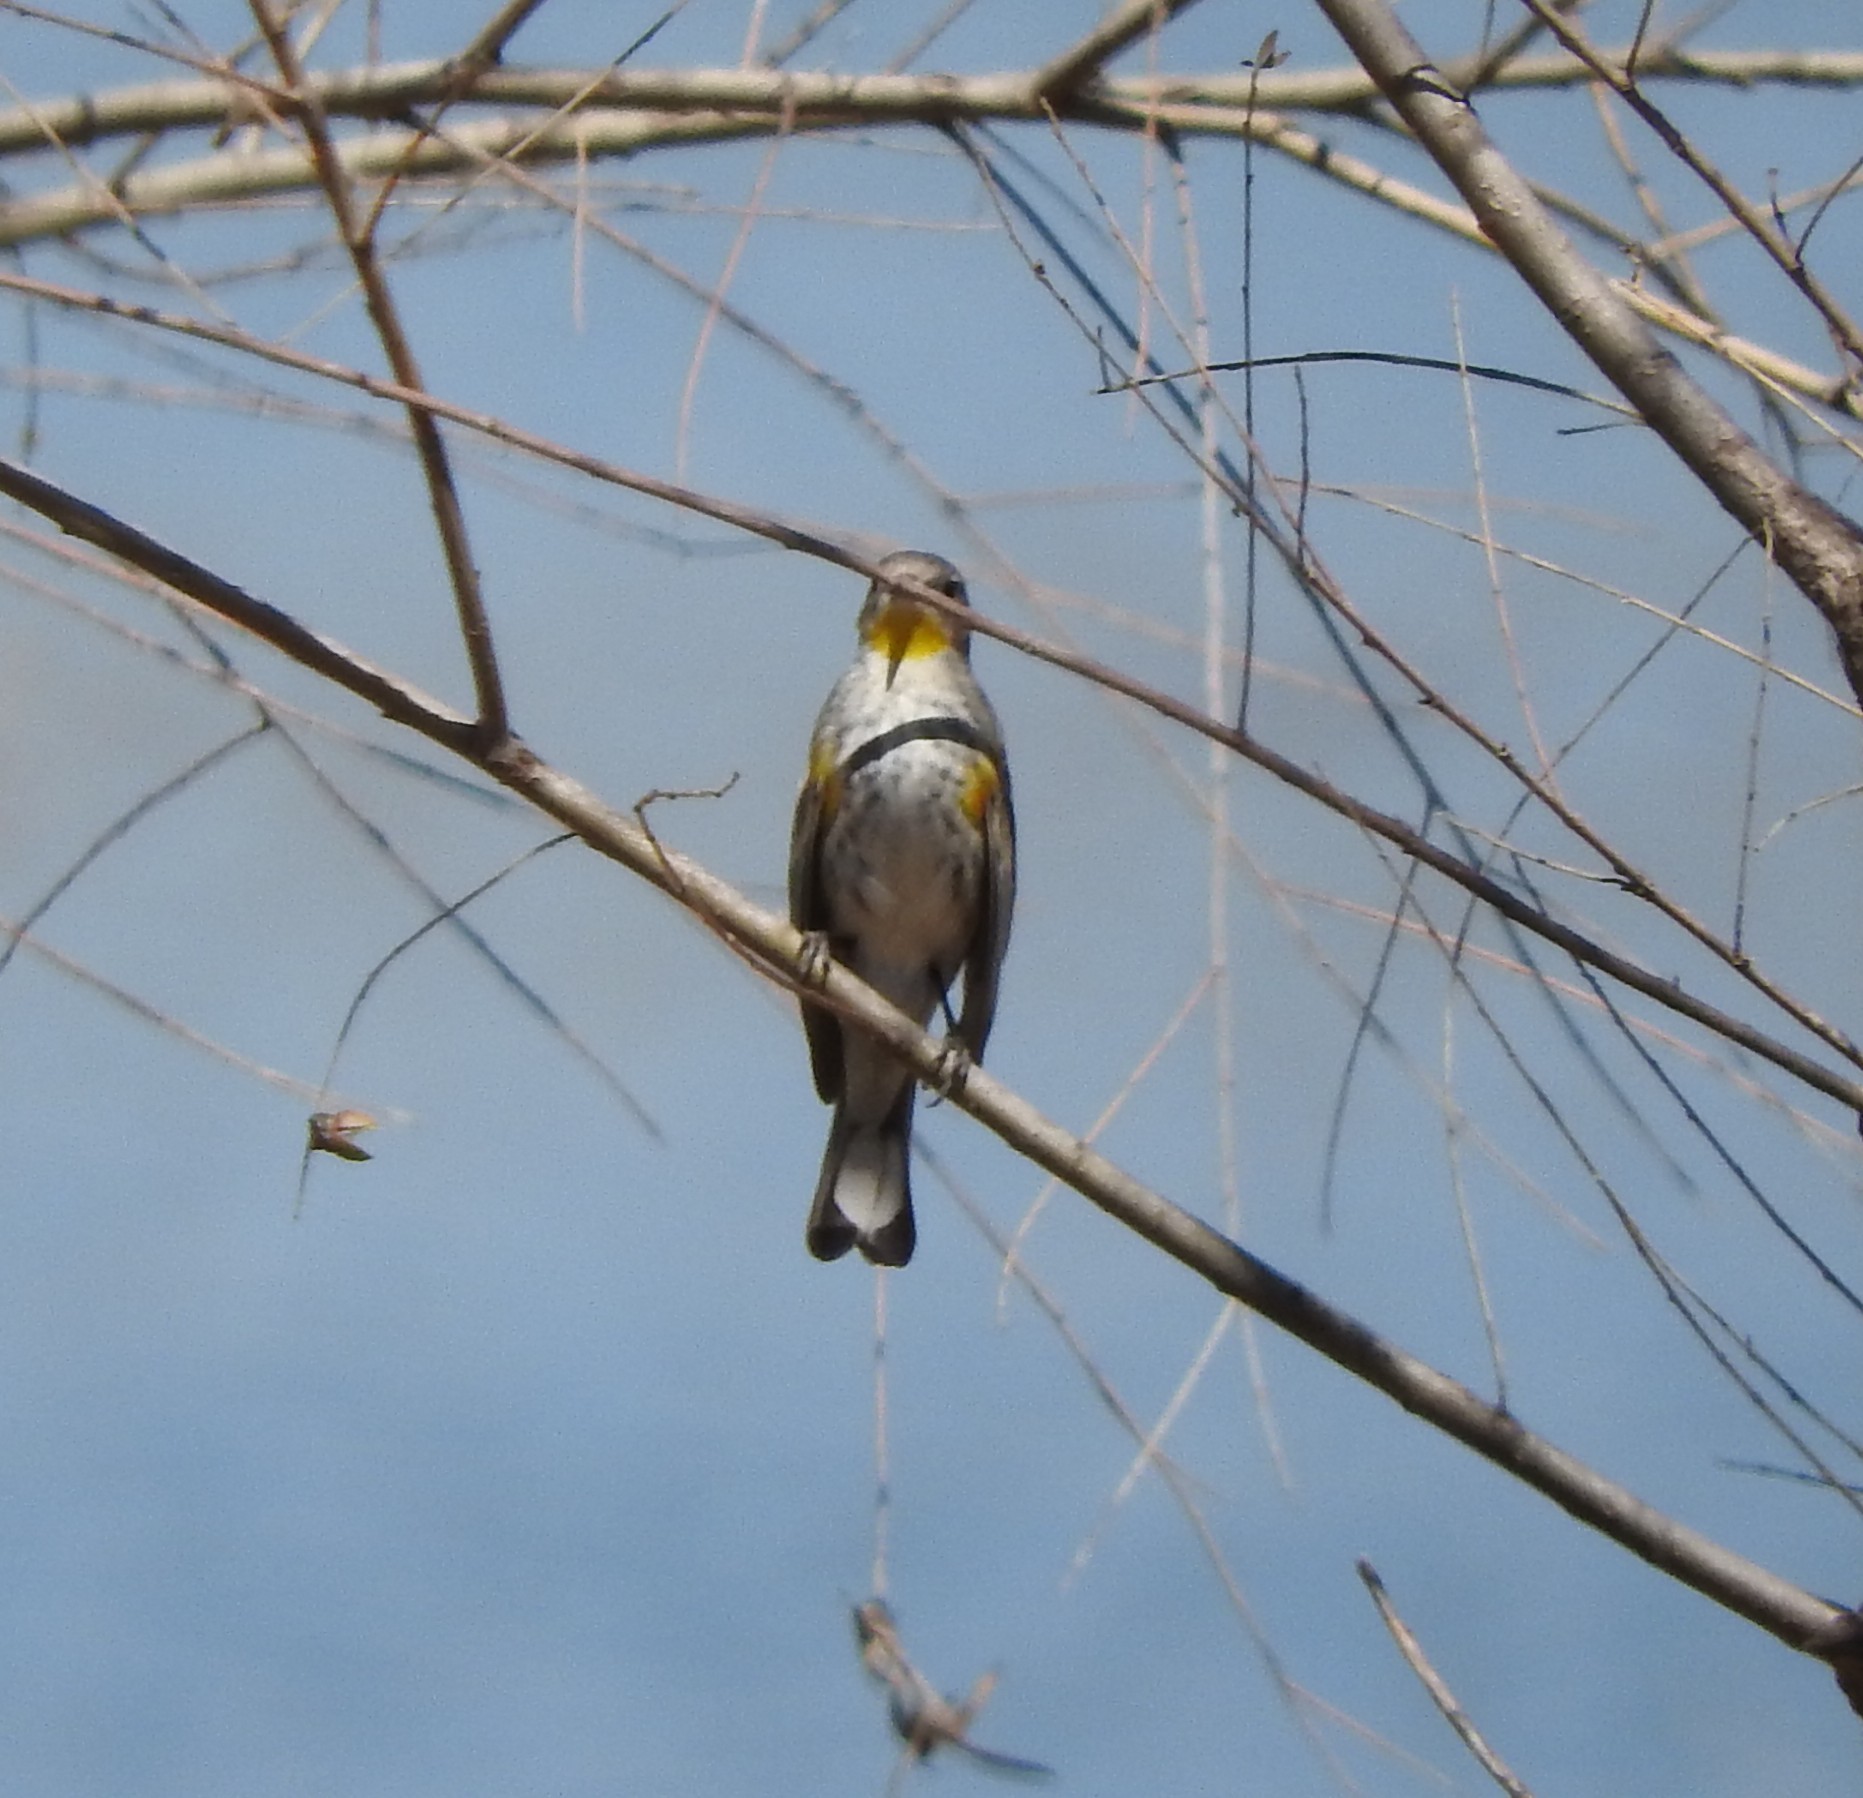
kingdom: Animalia
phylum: Chordata
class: Aves
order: Passeriformes
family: Parulidae
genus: Setophaga
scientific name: Setophaga coronata
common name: Myrtle warbler
